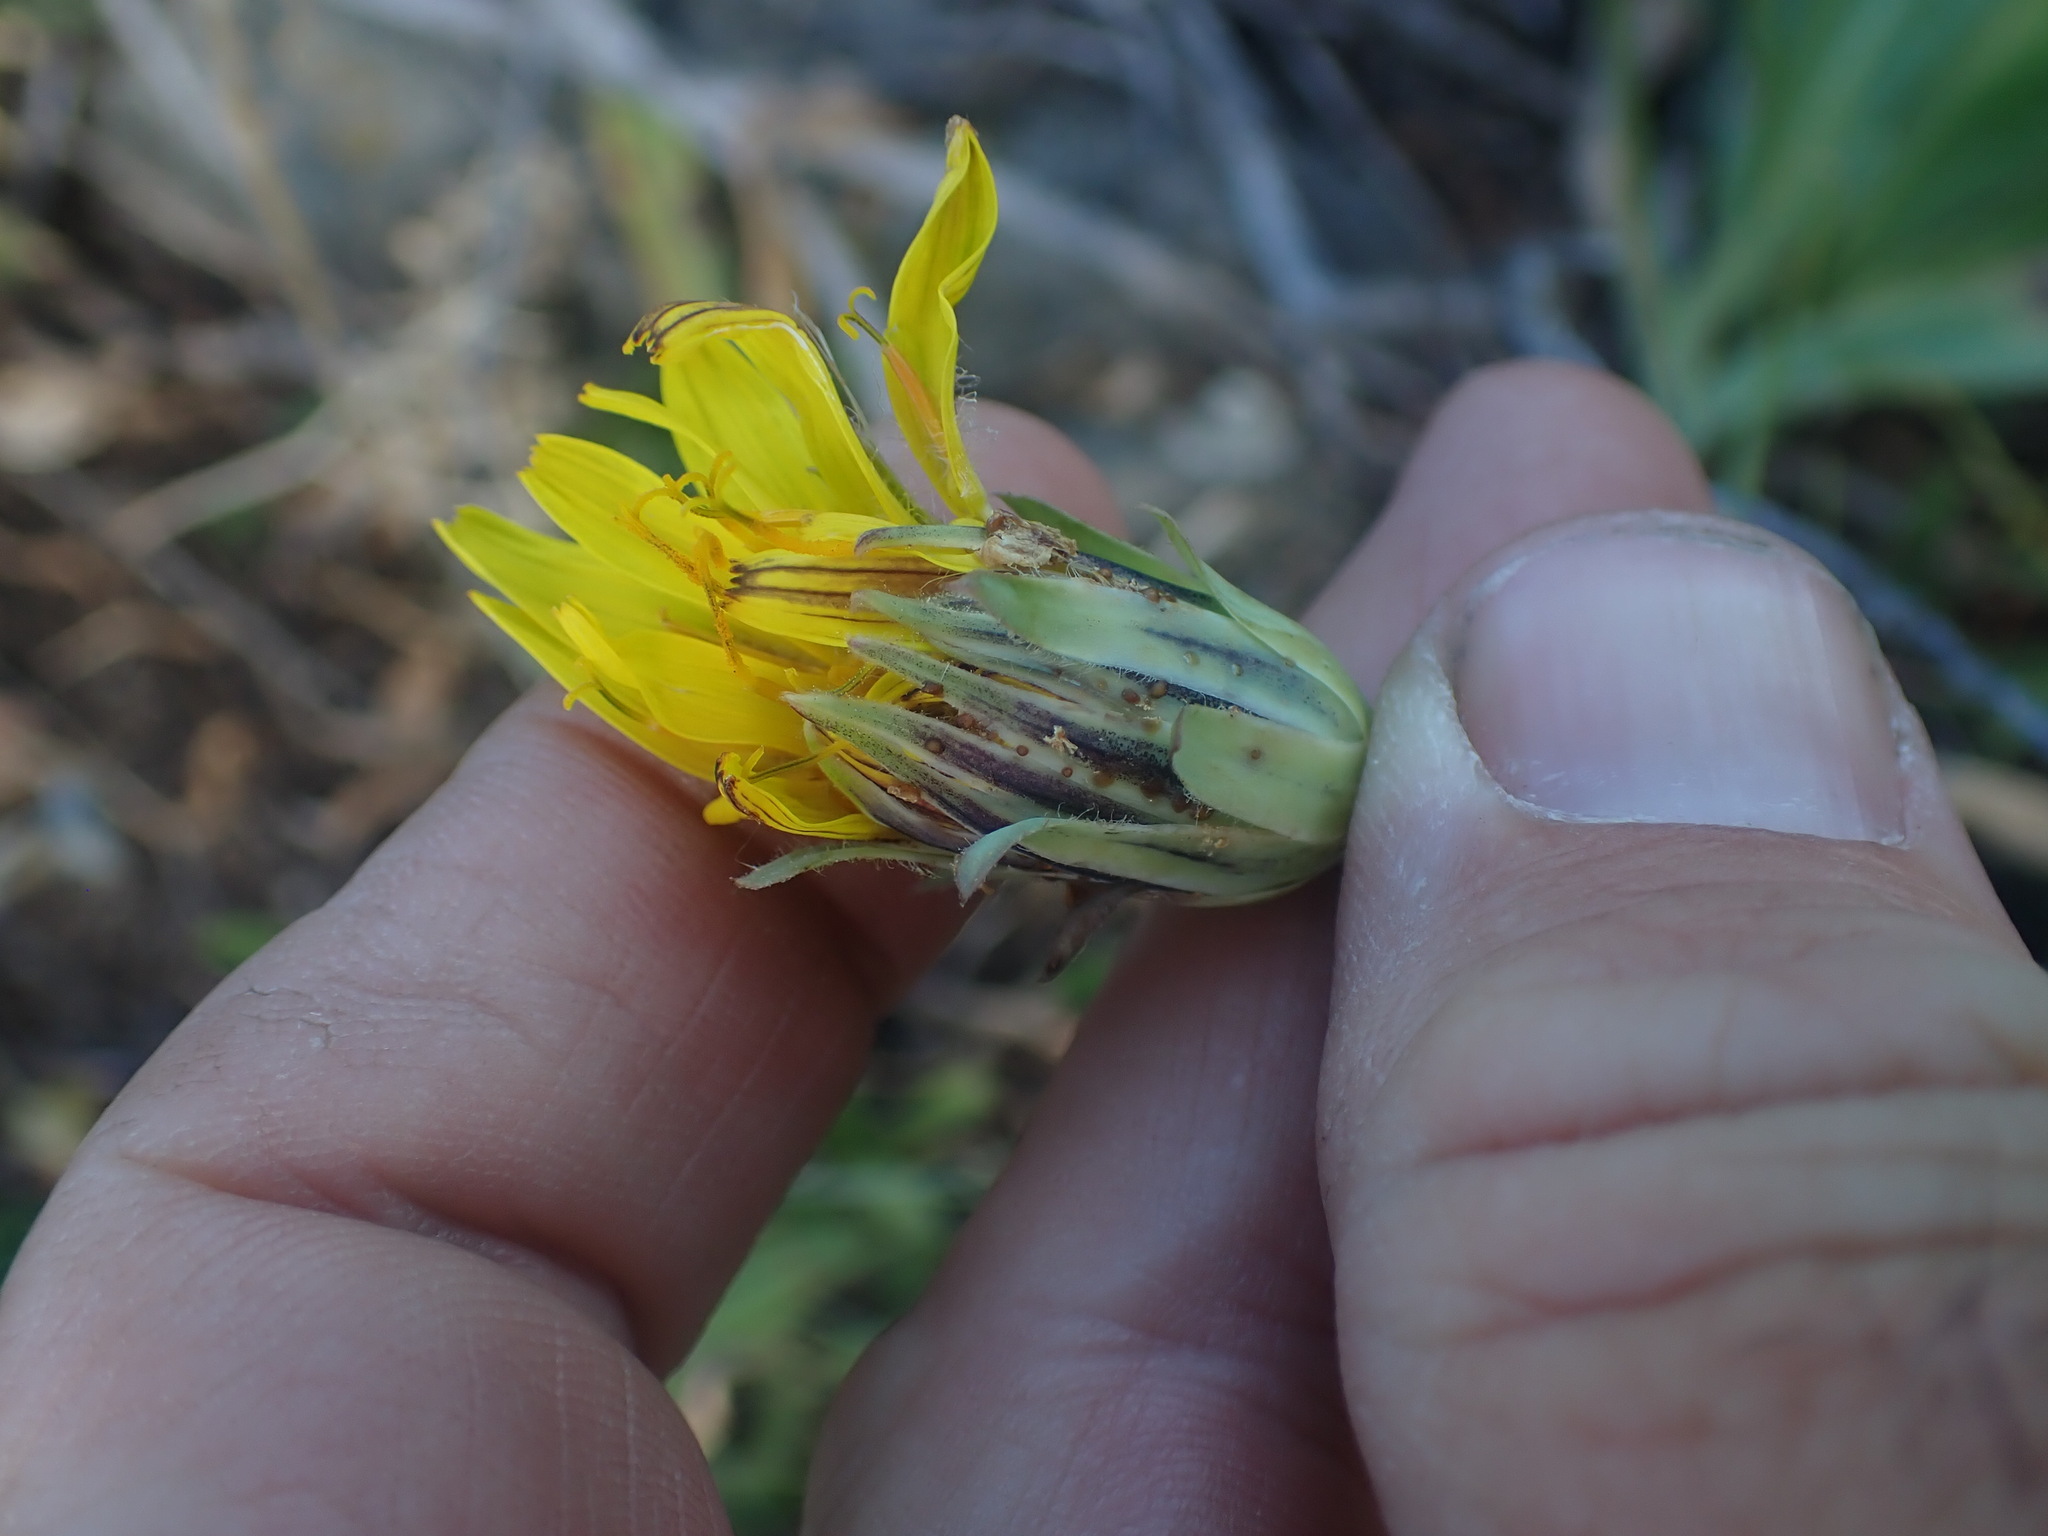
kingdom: Plantae
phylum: Tracheophyta
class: Magnoliopsida
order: Asterales
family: Asteraceae
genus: Agoseris
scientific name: Agoseris glauca
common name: Prairie agoseris
